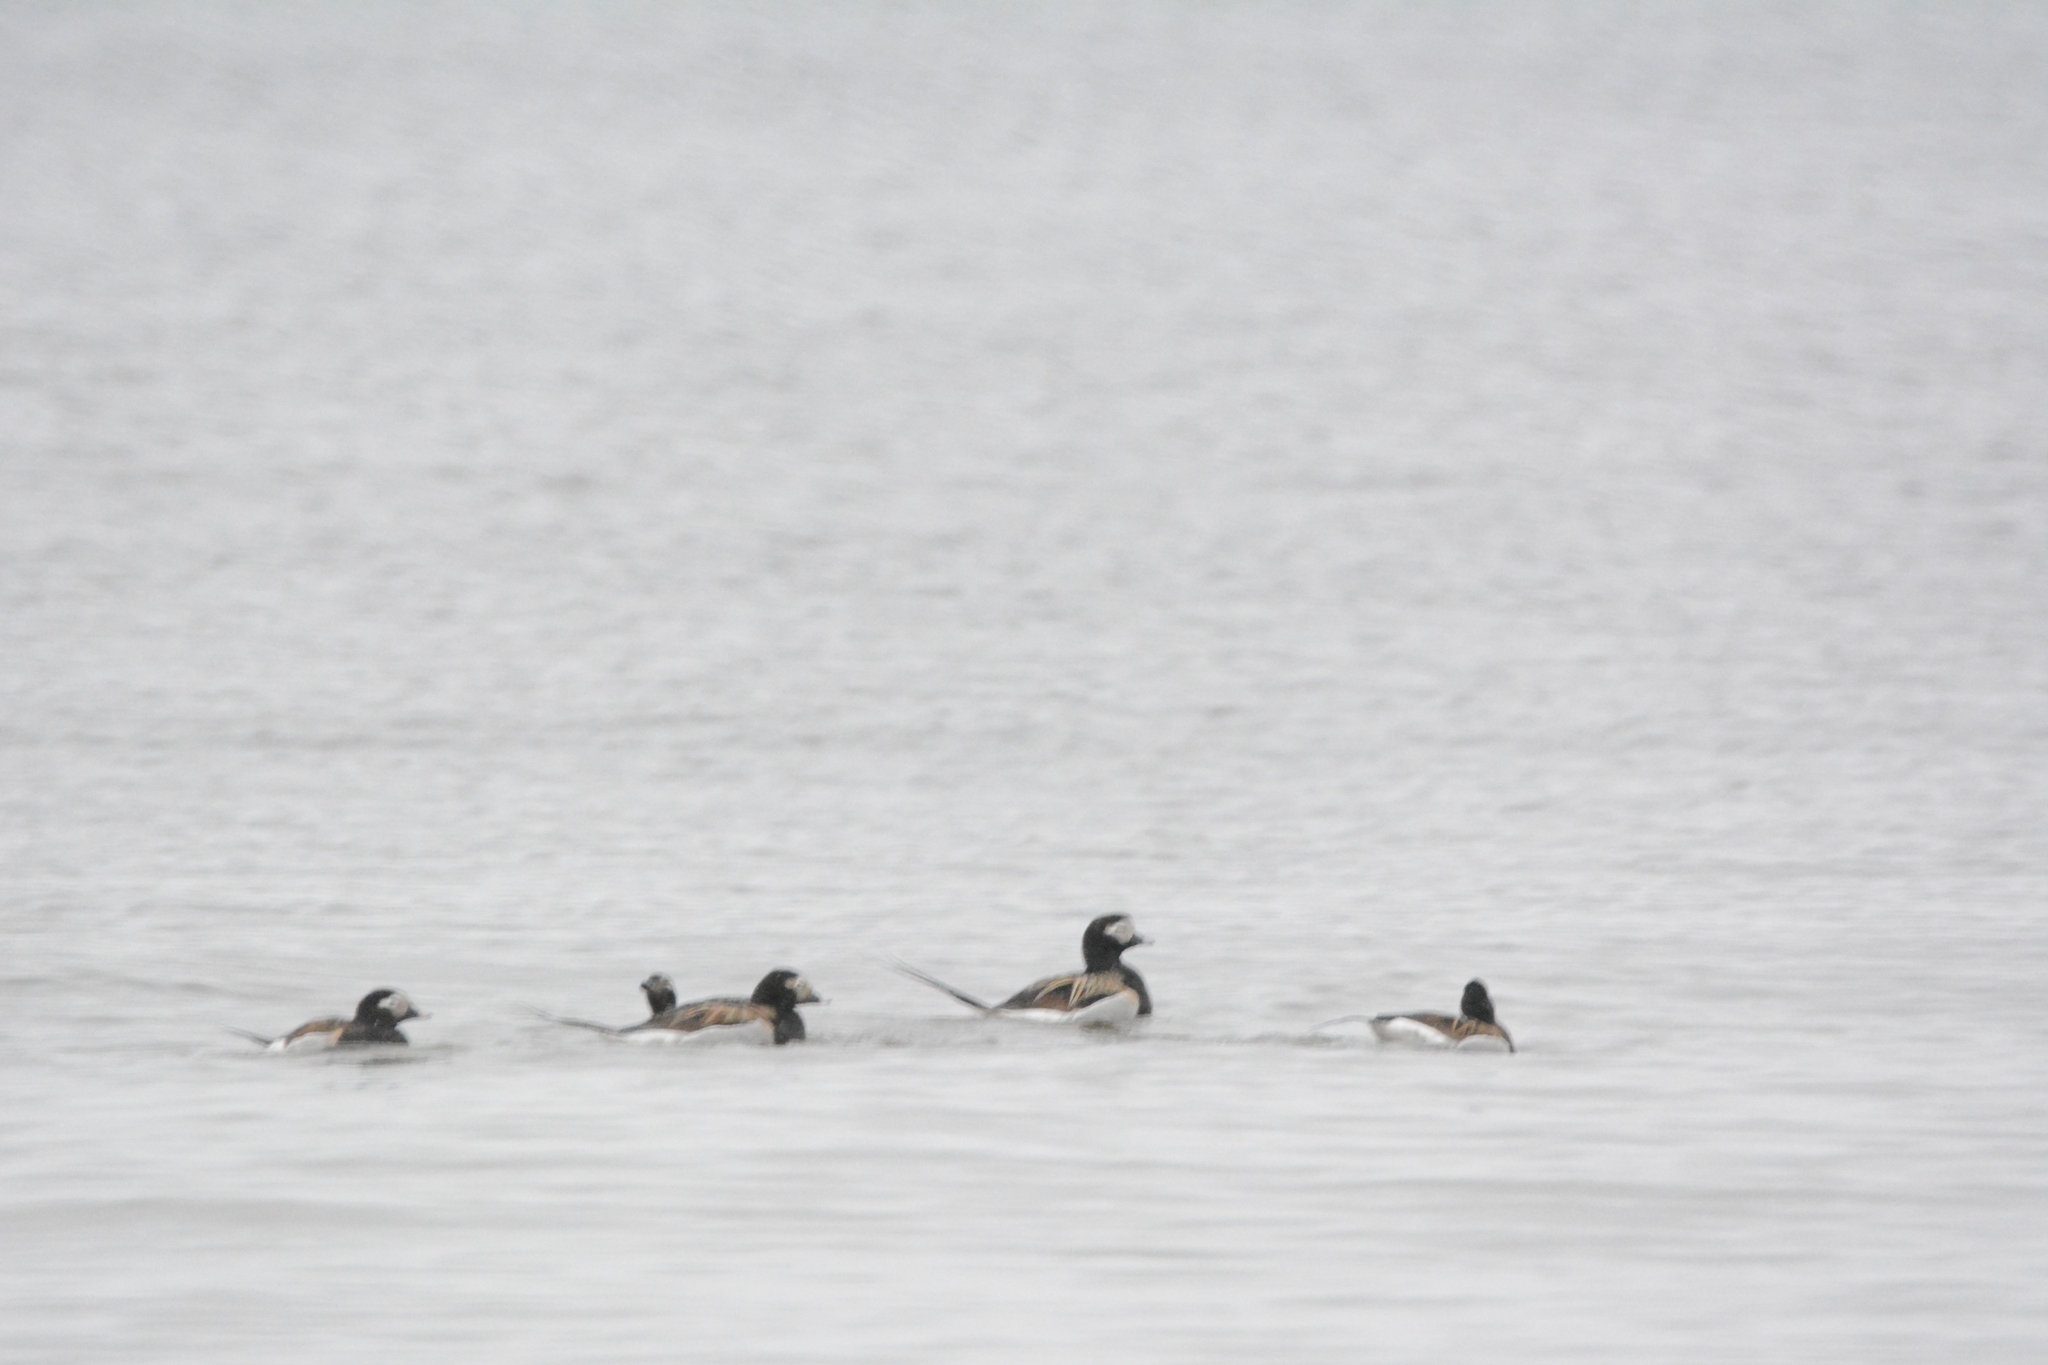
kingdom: Animalia
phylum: Chordata
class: Aves
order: Anseriformes
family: Anatidae
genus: Clangula
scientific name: Clangula hyemalis
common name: Long-tailed duck
